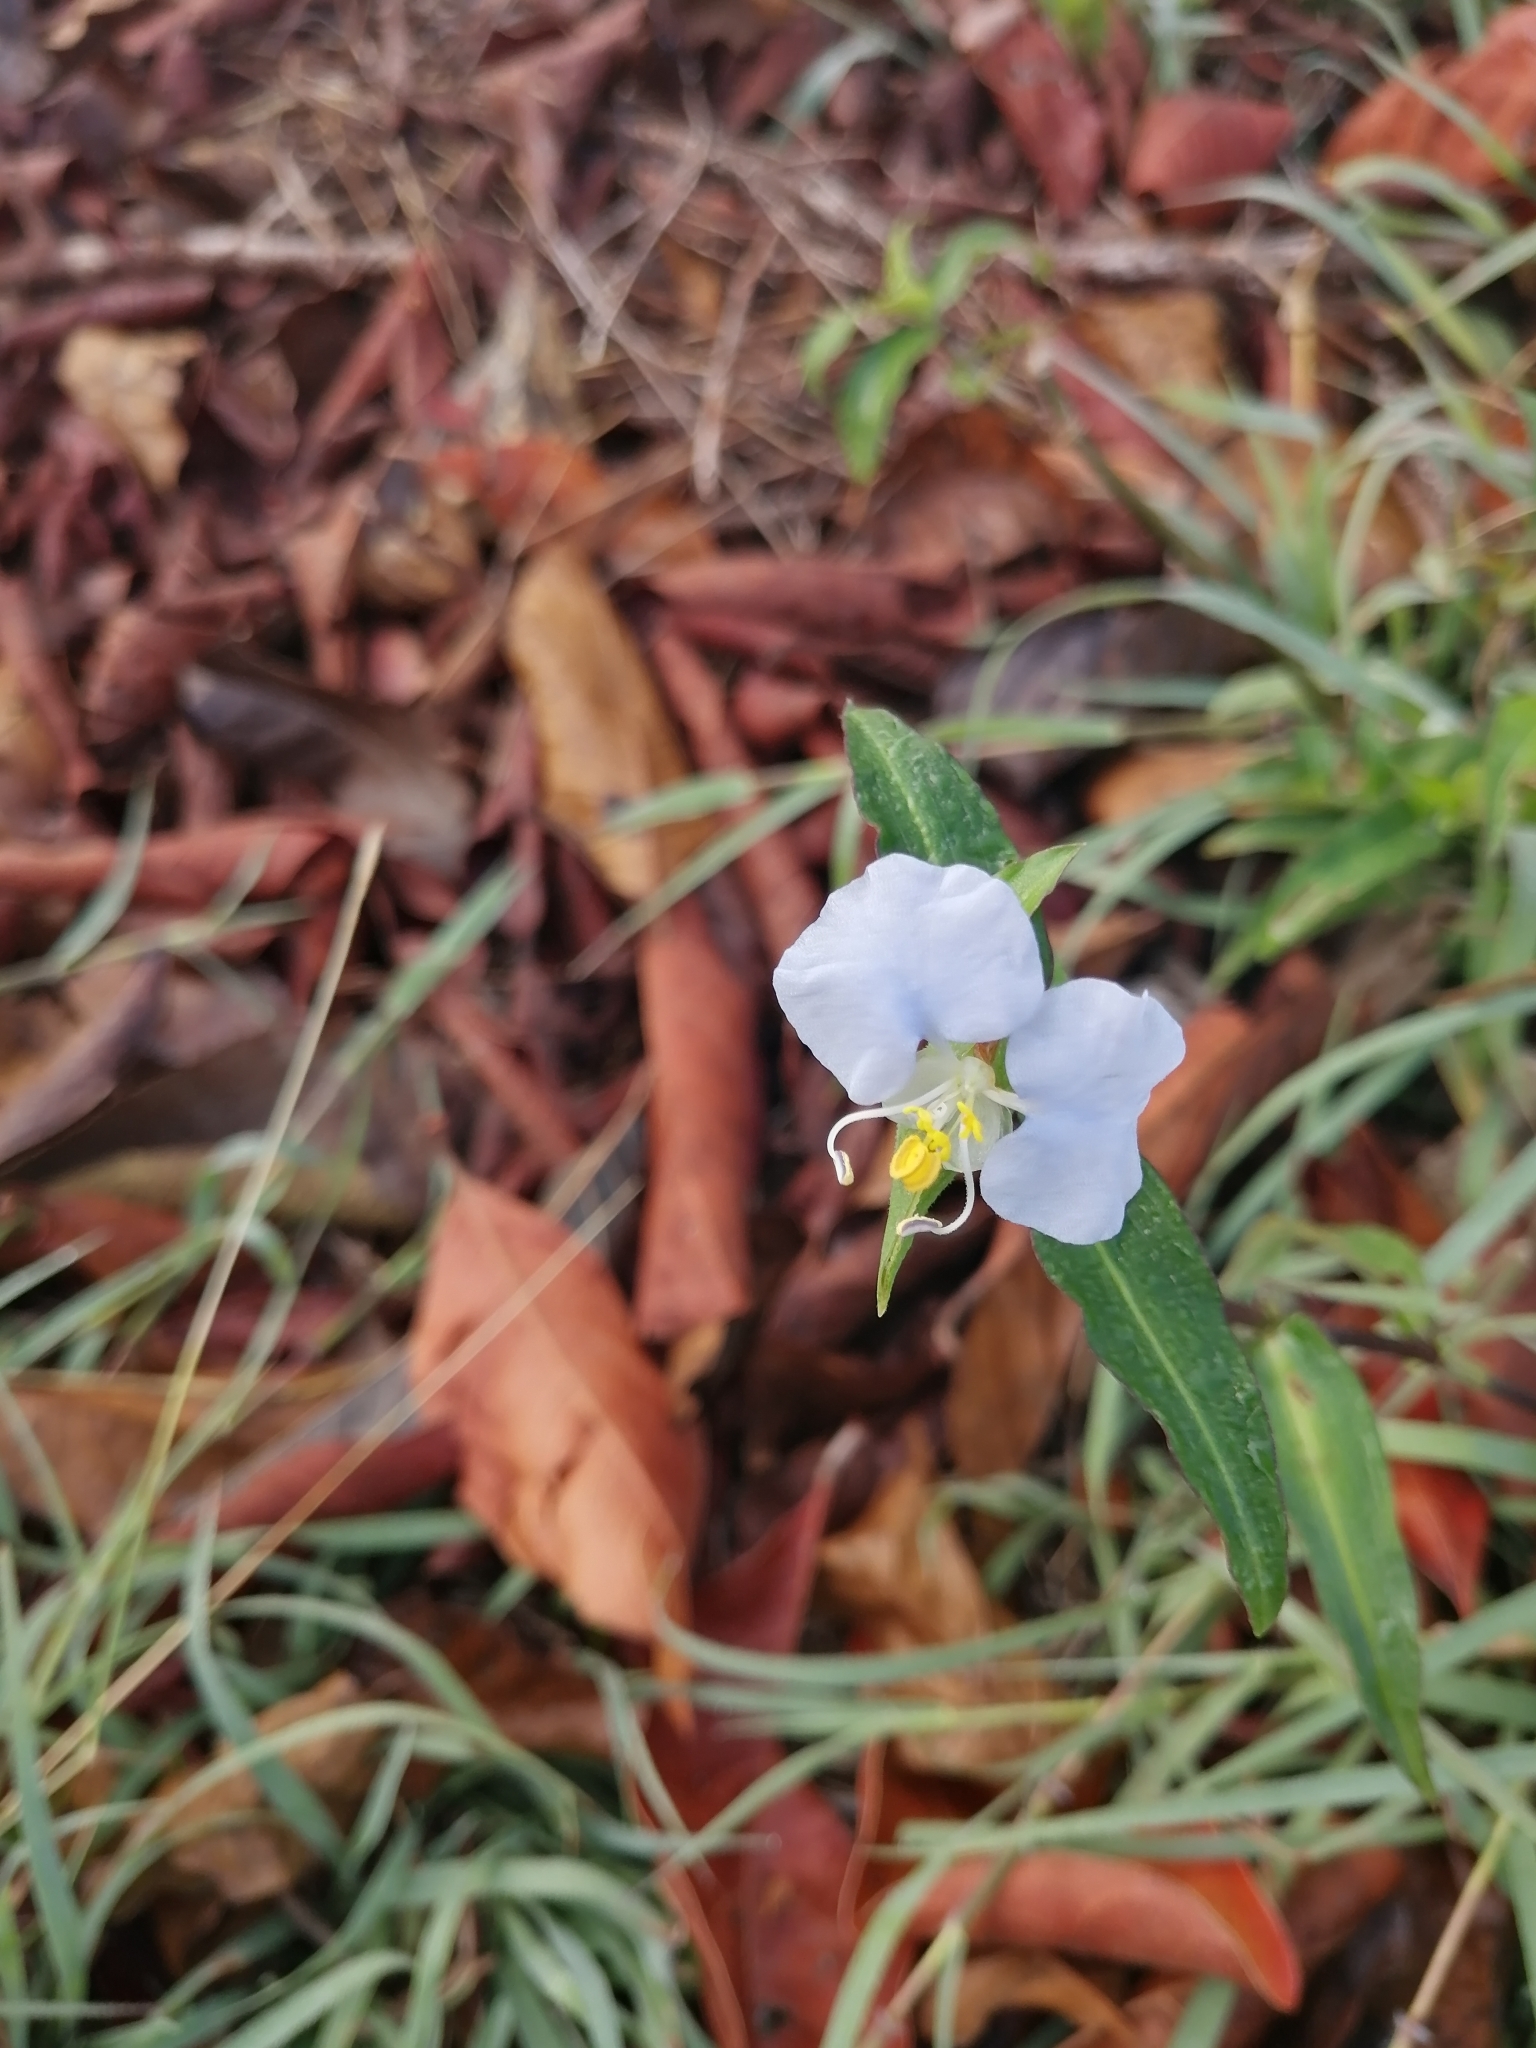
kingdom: Plantae
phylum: Tracheophyta
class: Liliopsida
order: Commelinales
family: Commelinaceae
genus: Commelina
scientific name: Commelina erecta
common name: Blousel blommetjie
